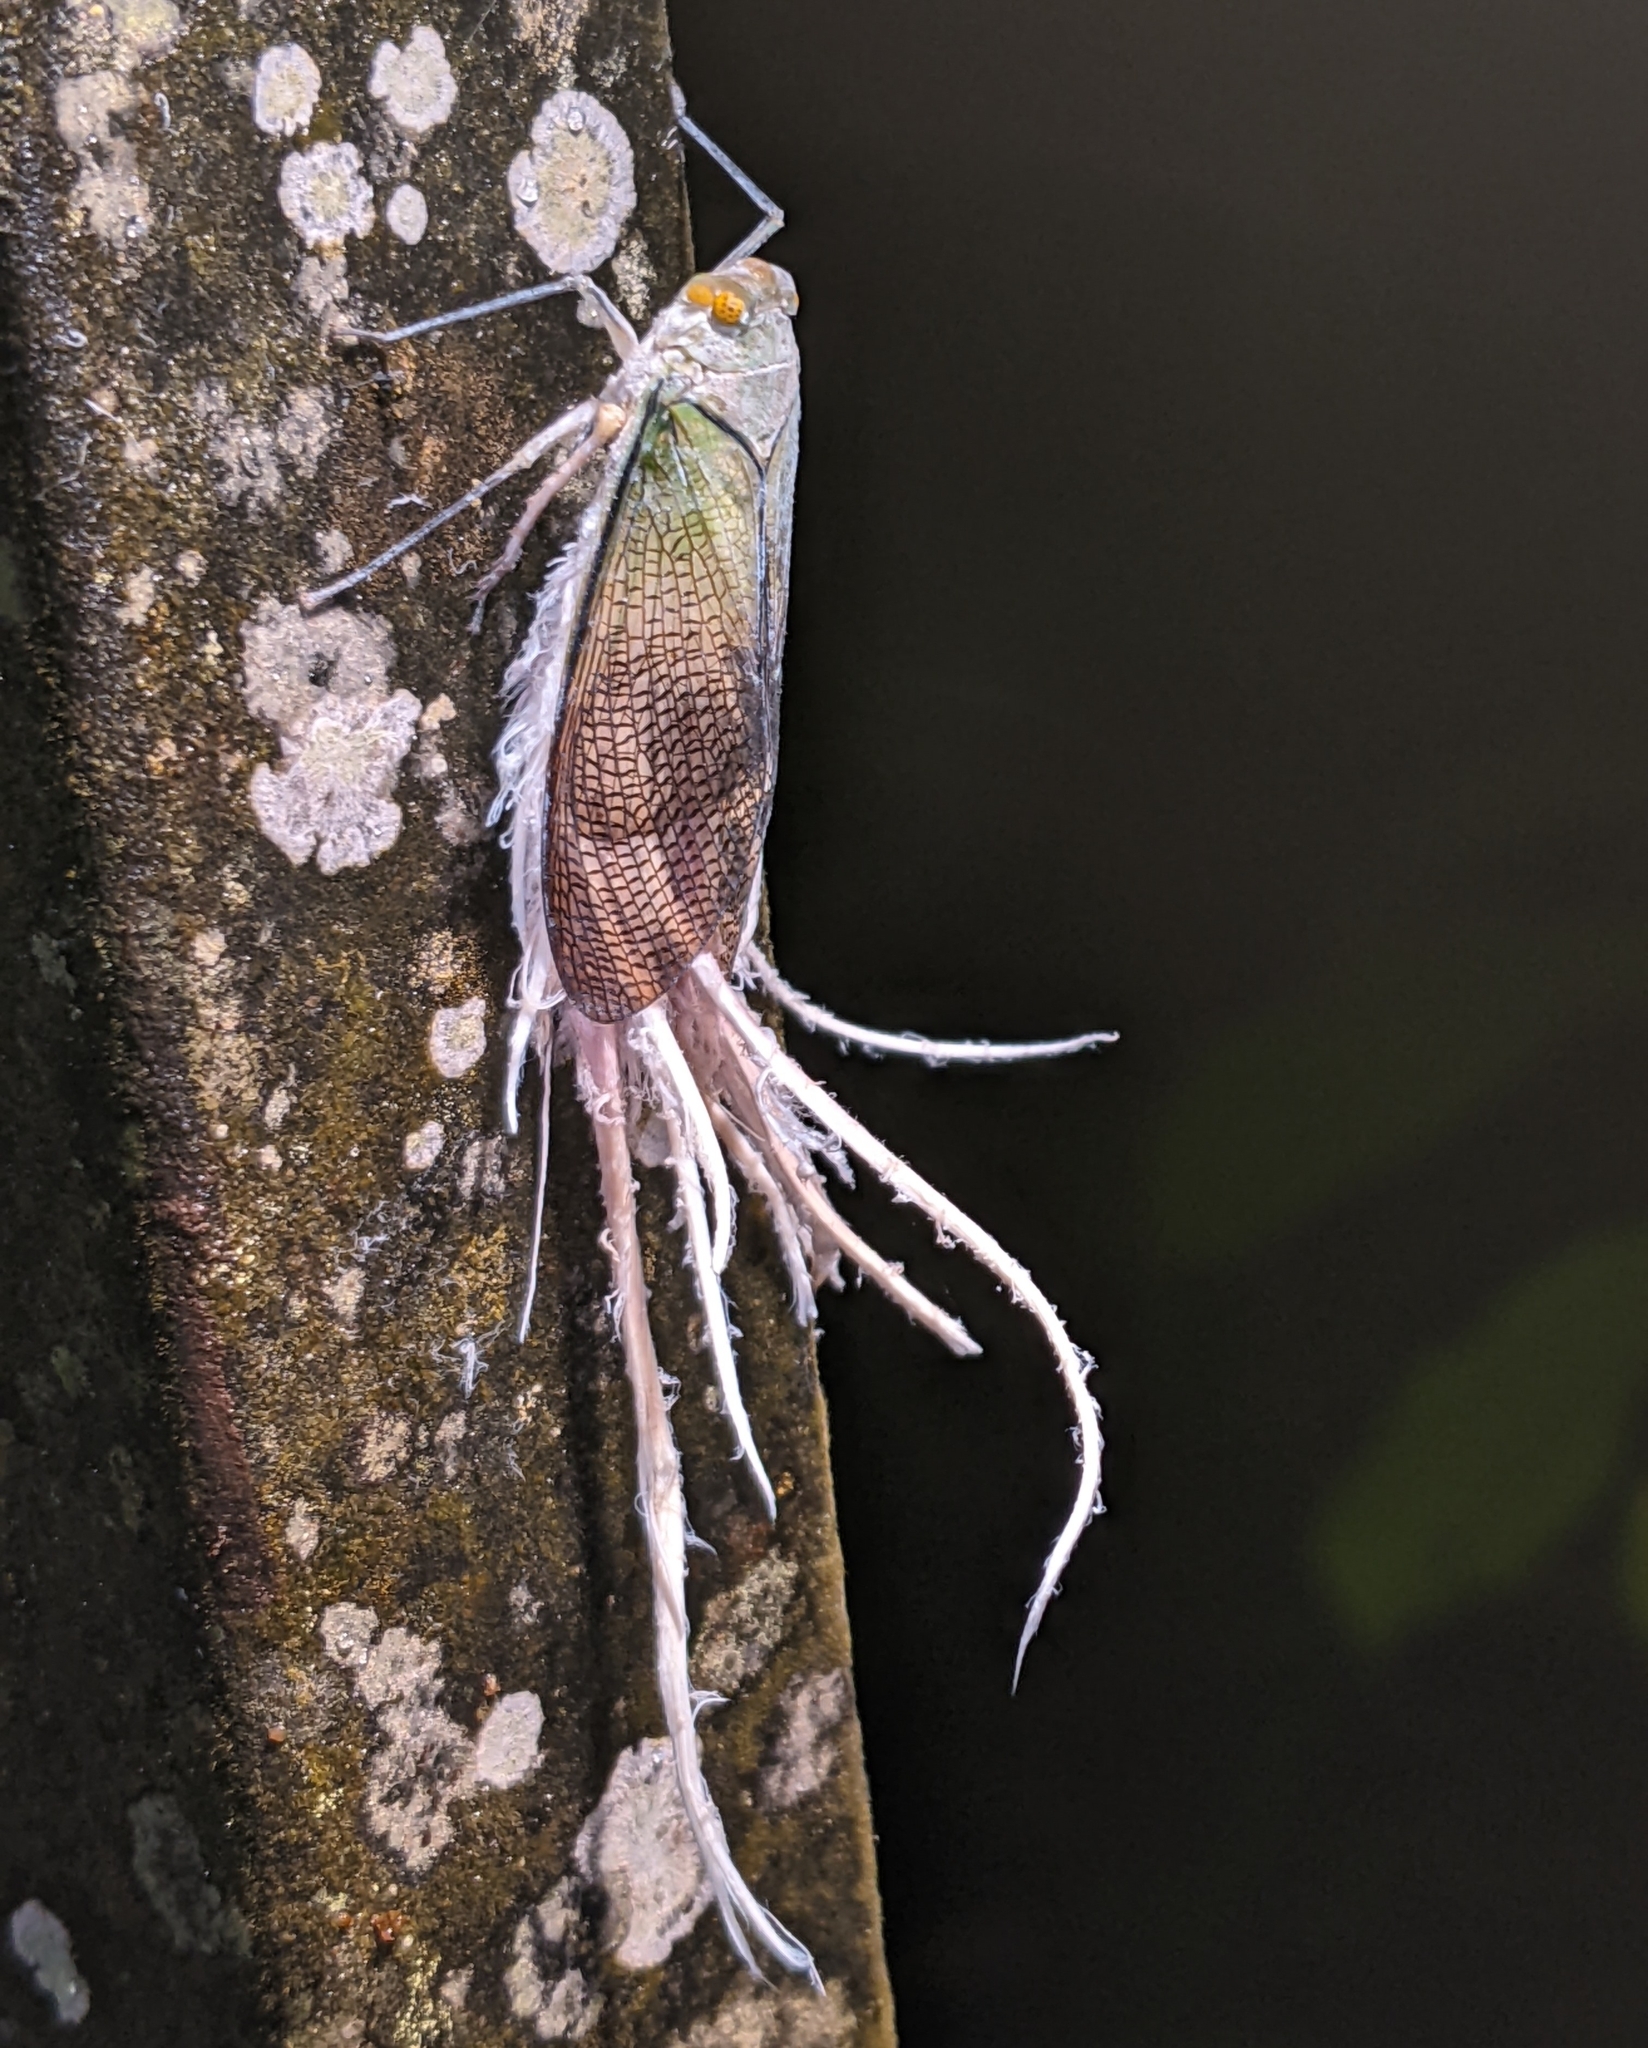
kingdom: Animalia
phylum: Arthropoda
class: Insecta
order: Hemiptera
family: Fulgoridae
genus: Pterodictya
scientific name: Pterodictya reticularis
